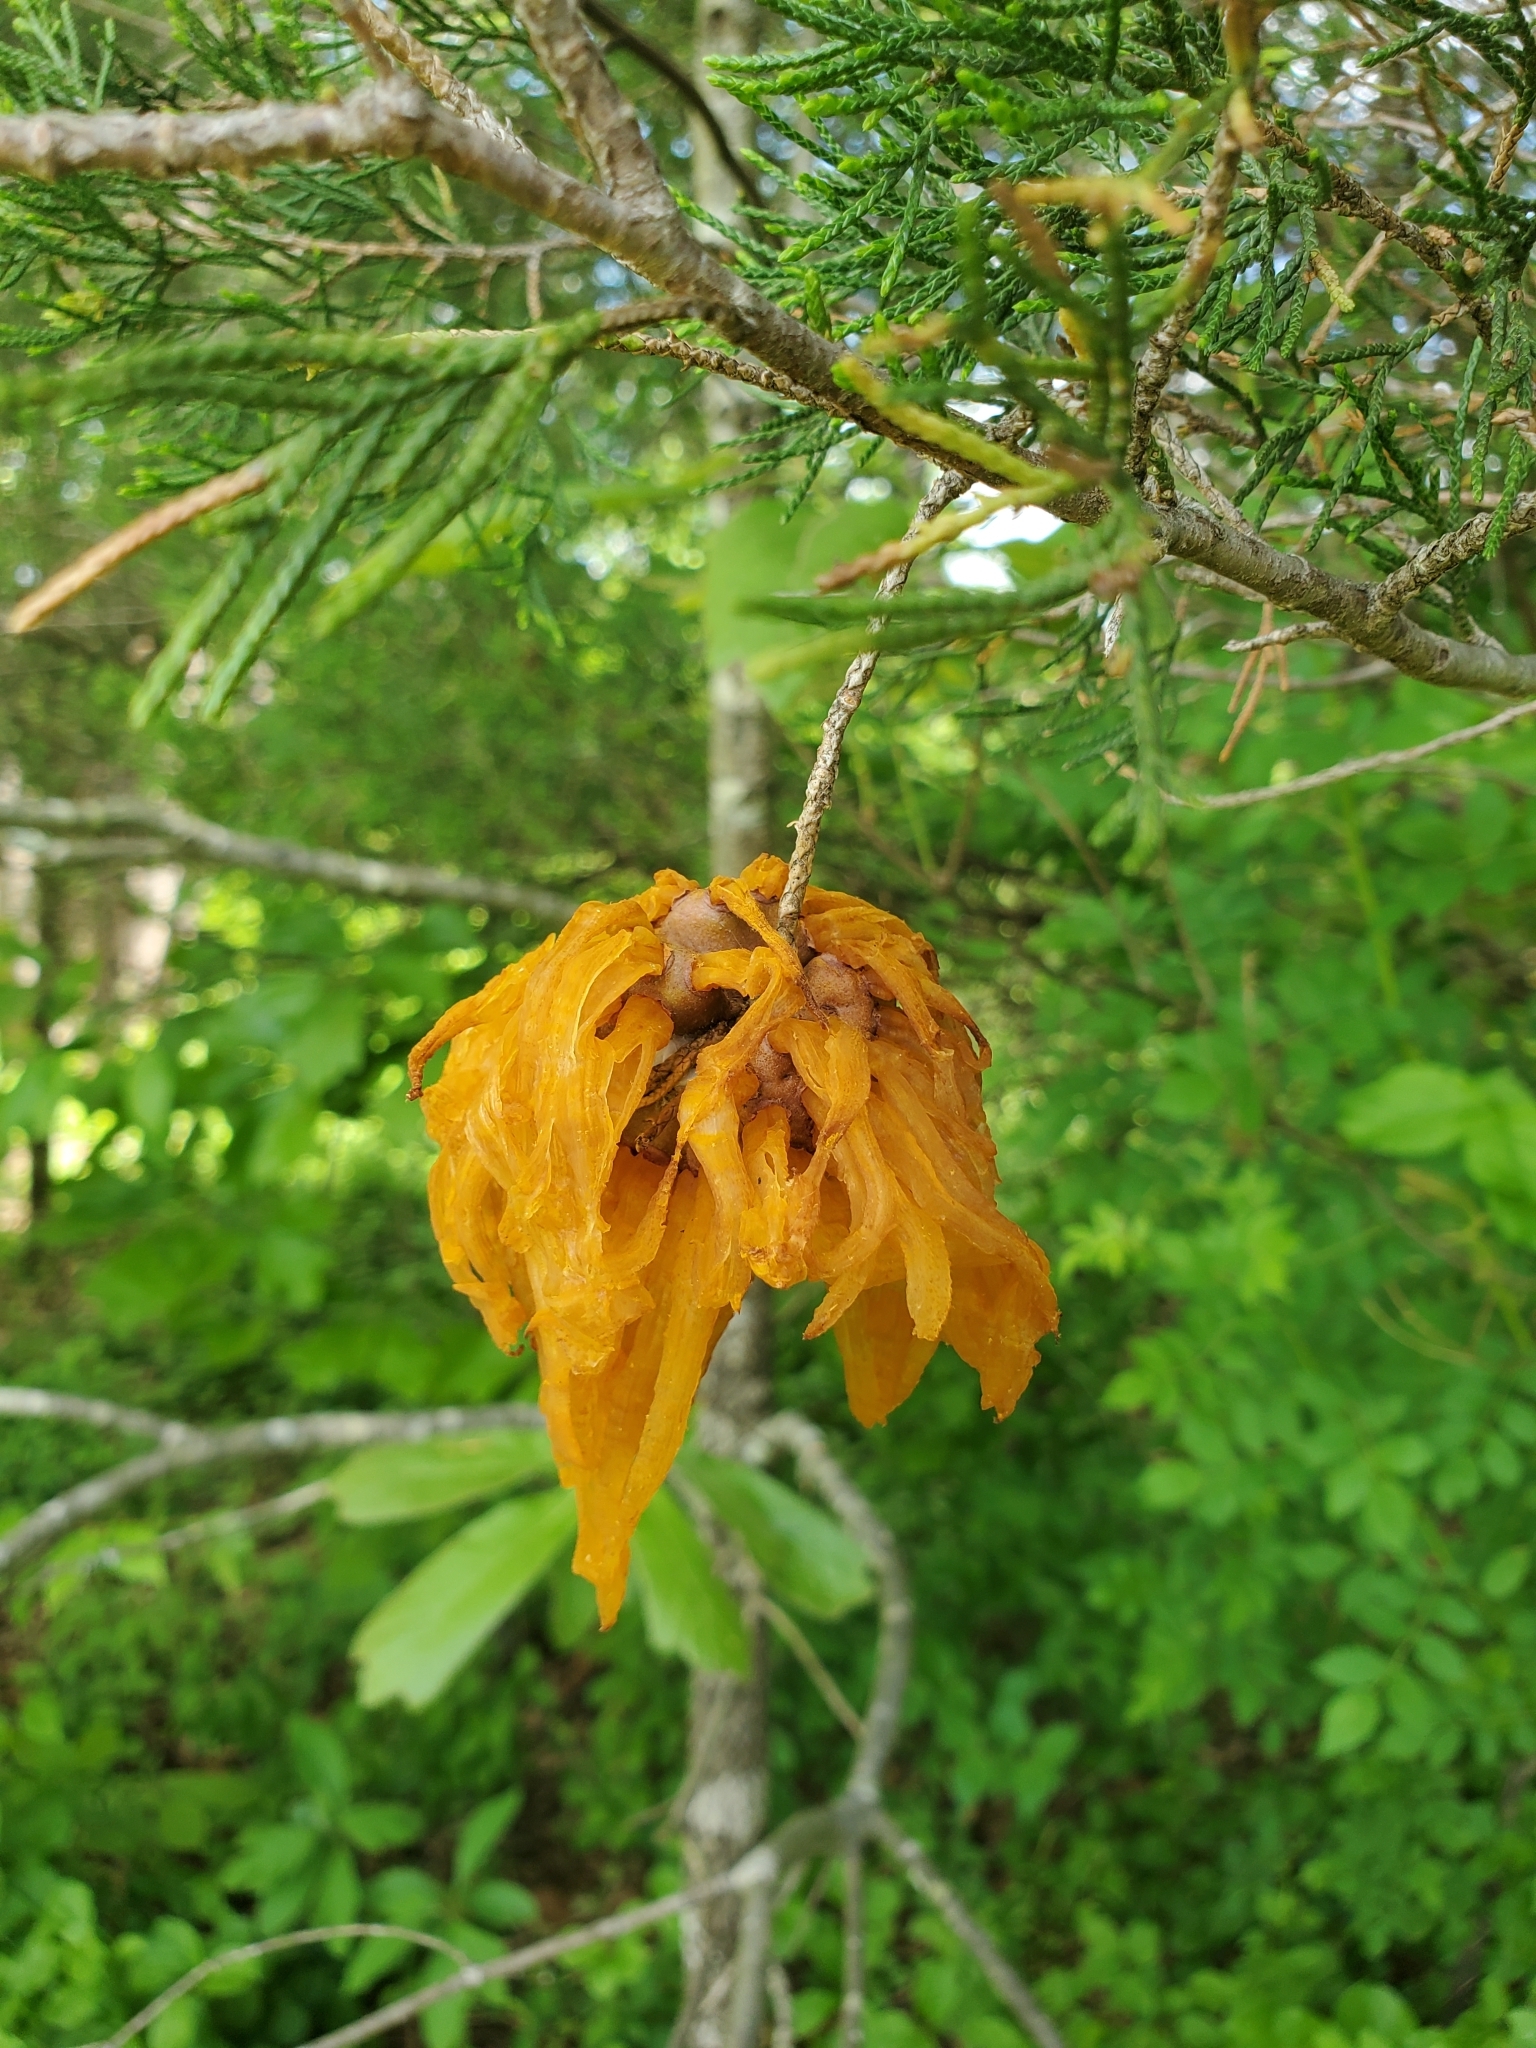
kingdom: Fungi
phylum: Basidiomycota
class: Pucciniomycetes
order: Pucciniales
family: Gymnosporangiaceae
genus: Gymnosporangium
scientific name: Gymnosporangium juniperi-virginianae
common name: Juniper-apple rust
